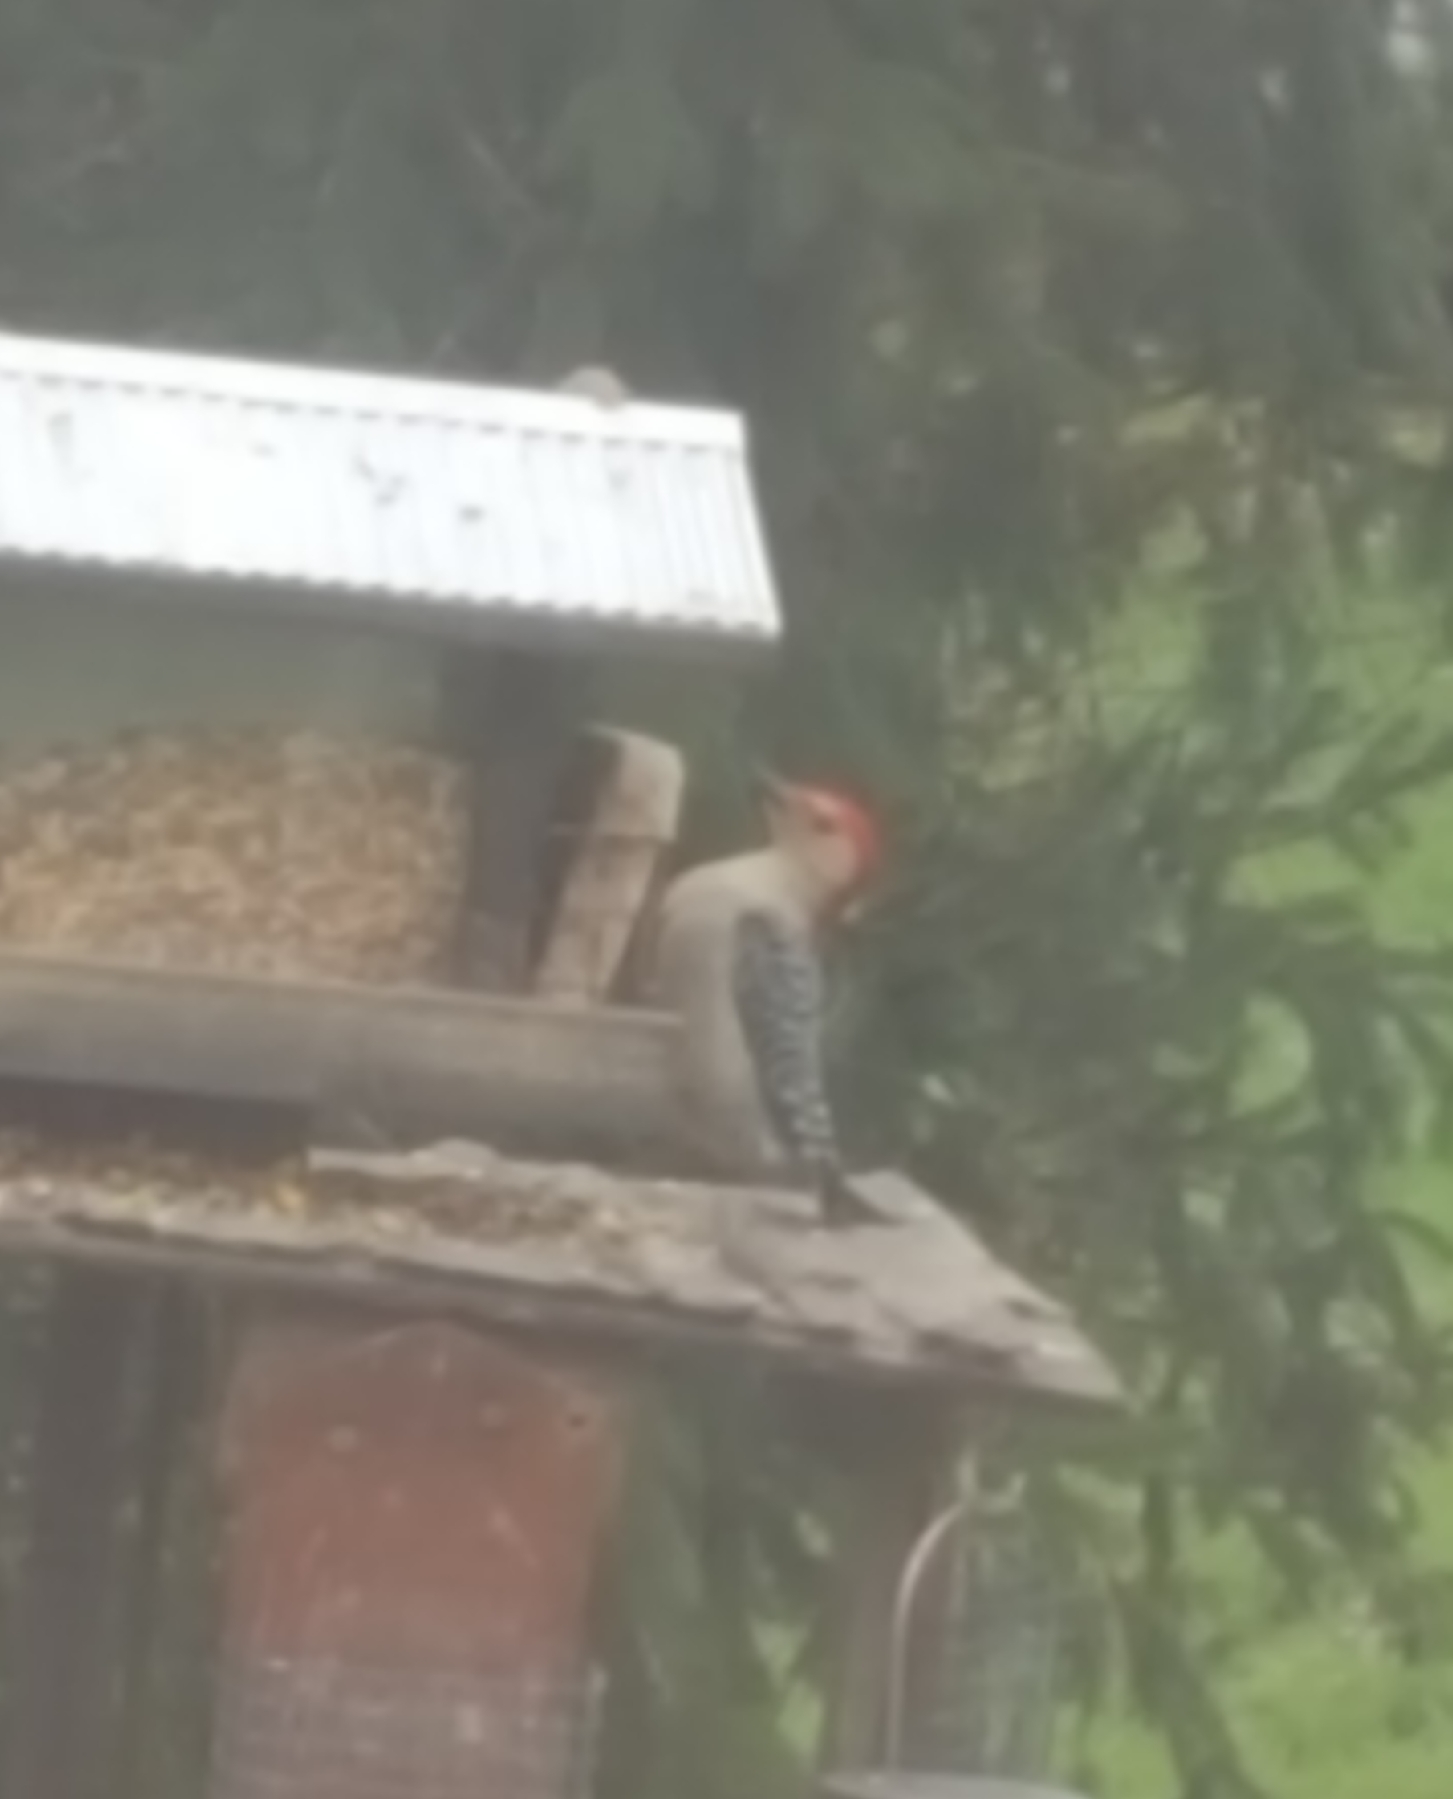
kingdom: Animalia
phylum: Chordata
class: Aves
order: Piciformes
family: Picidae
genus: Melanerpes
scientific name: Melanerpes carolinus
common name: Red-bellied woodpecker
